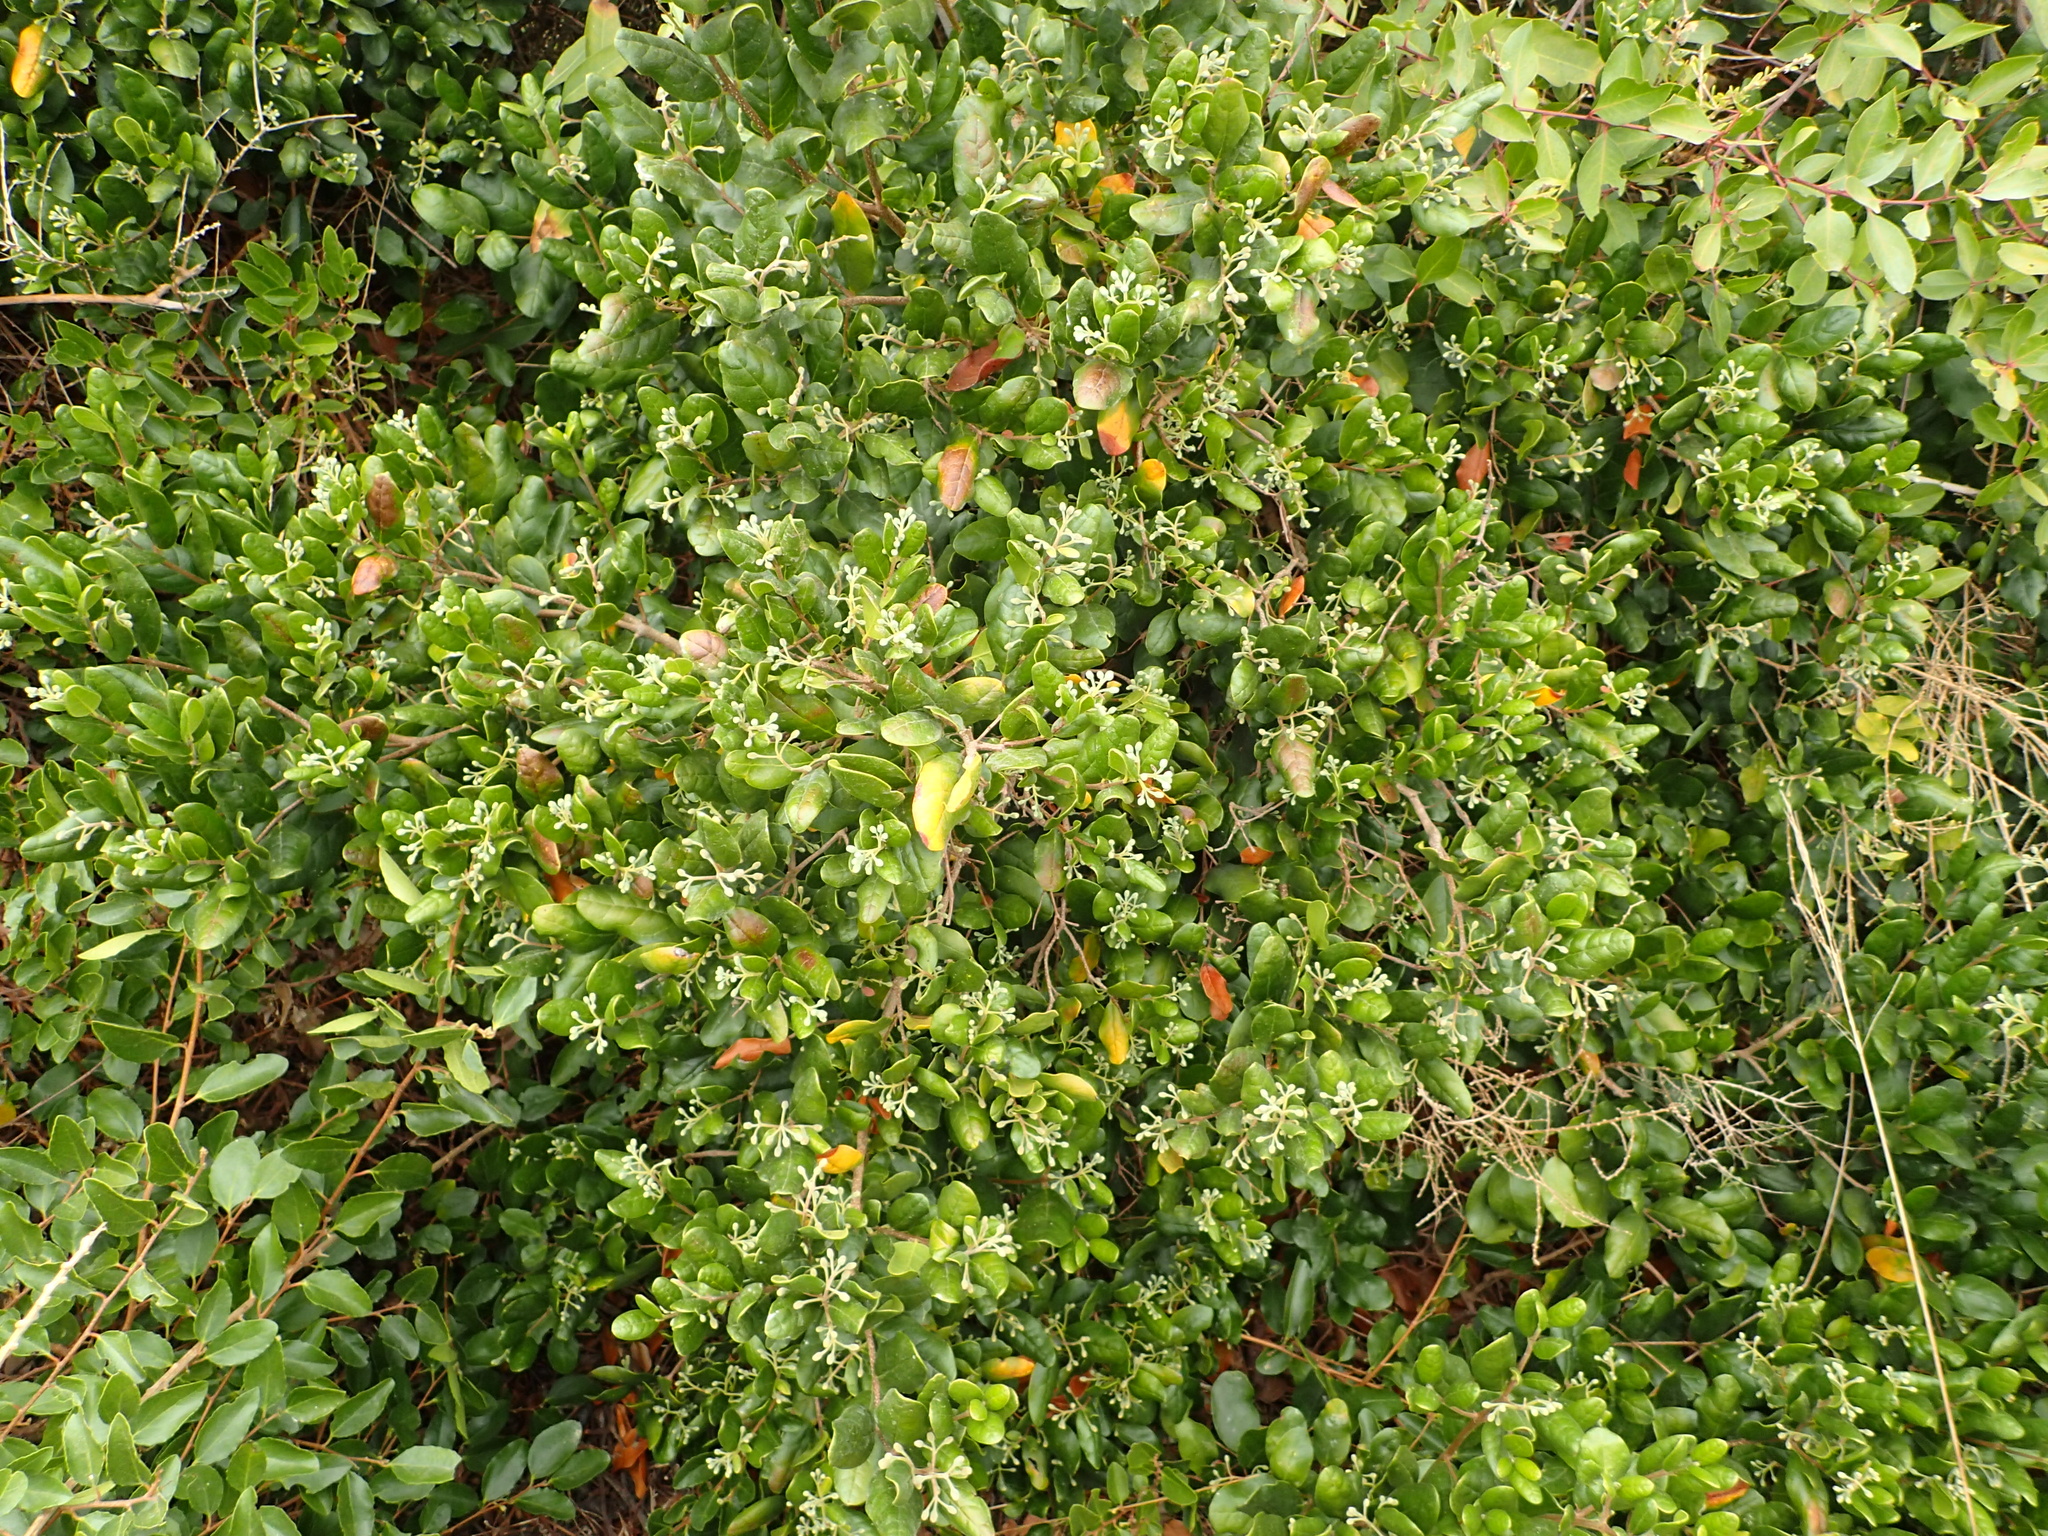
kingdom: Plantae
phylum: Tracheophyta
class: Magnoliopsida
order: Laurales
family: Monimiaceae
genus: Peumus
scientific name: Peumus boldus
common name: Boldo
